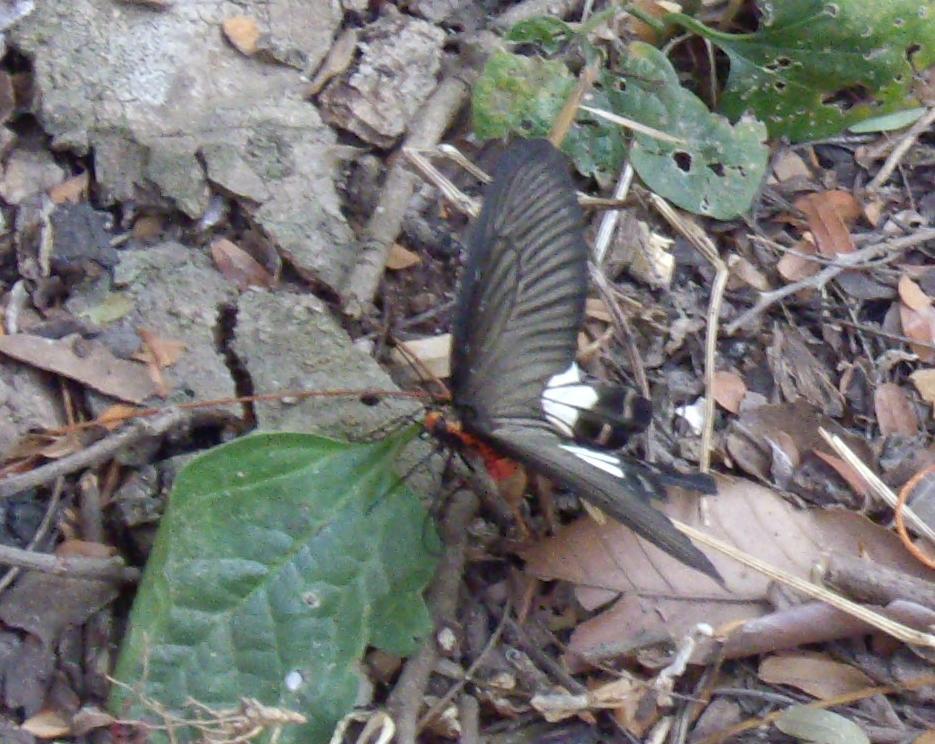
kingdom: Animalia
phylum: Arthropoda
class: Insecta
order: Lepidoptera
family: Papilionidae
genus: Pachliopta
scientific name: Pachliopta aristolochiae
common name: Common rose
